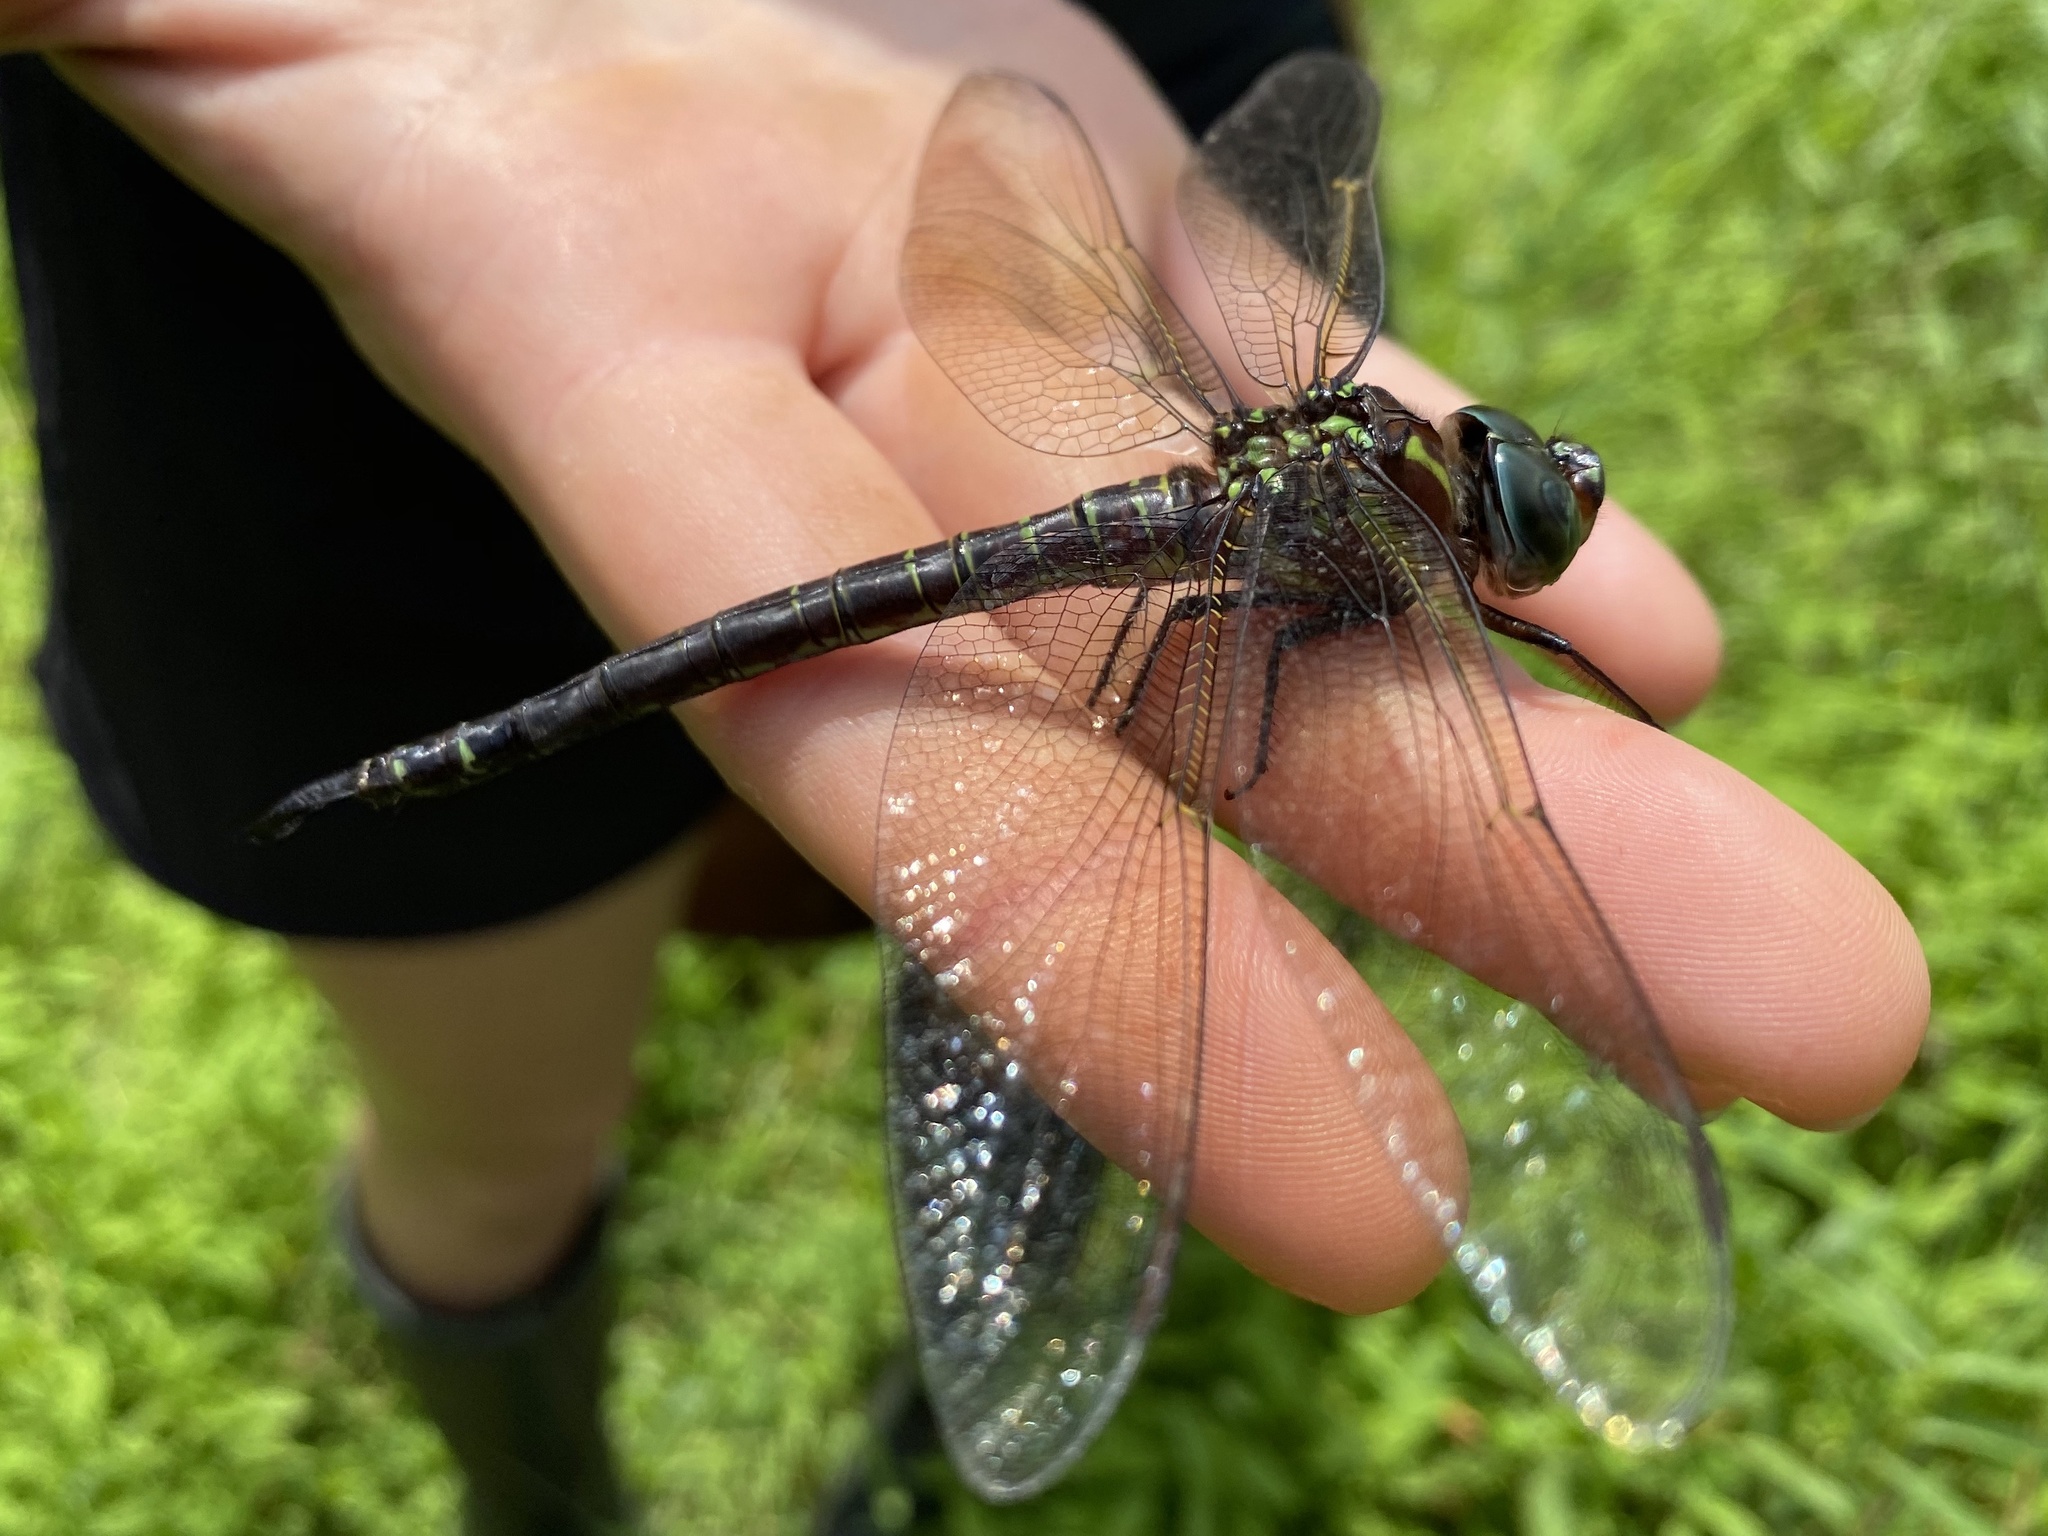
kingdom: Animalia
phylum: Arthropoda
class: Insecta
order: Odonata
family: Aeshnidae
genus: Epiaeschna
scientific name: Epiaeschna heros
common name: Swamp darner
